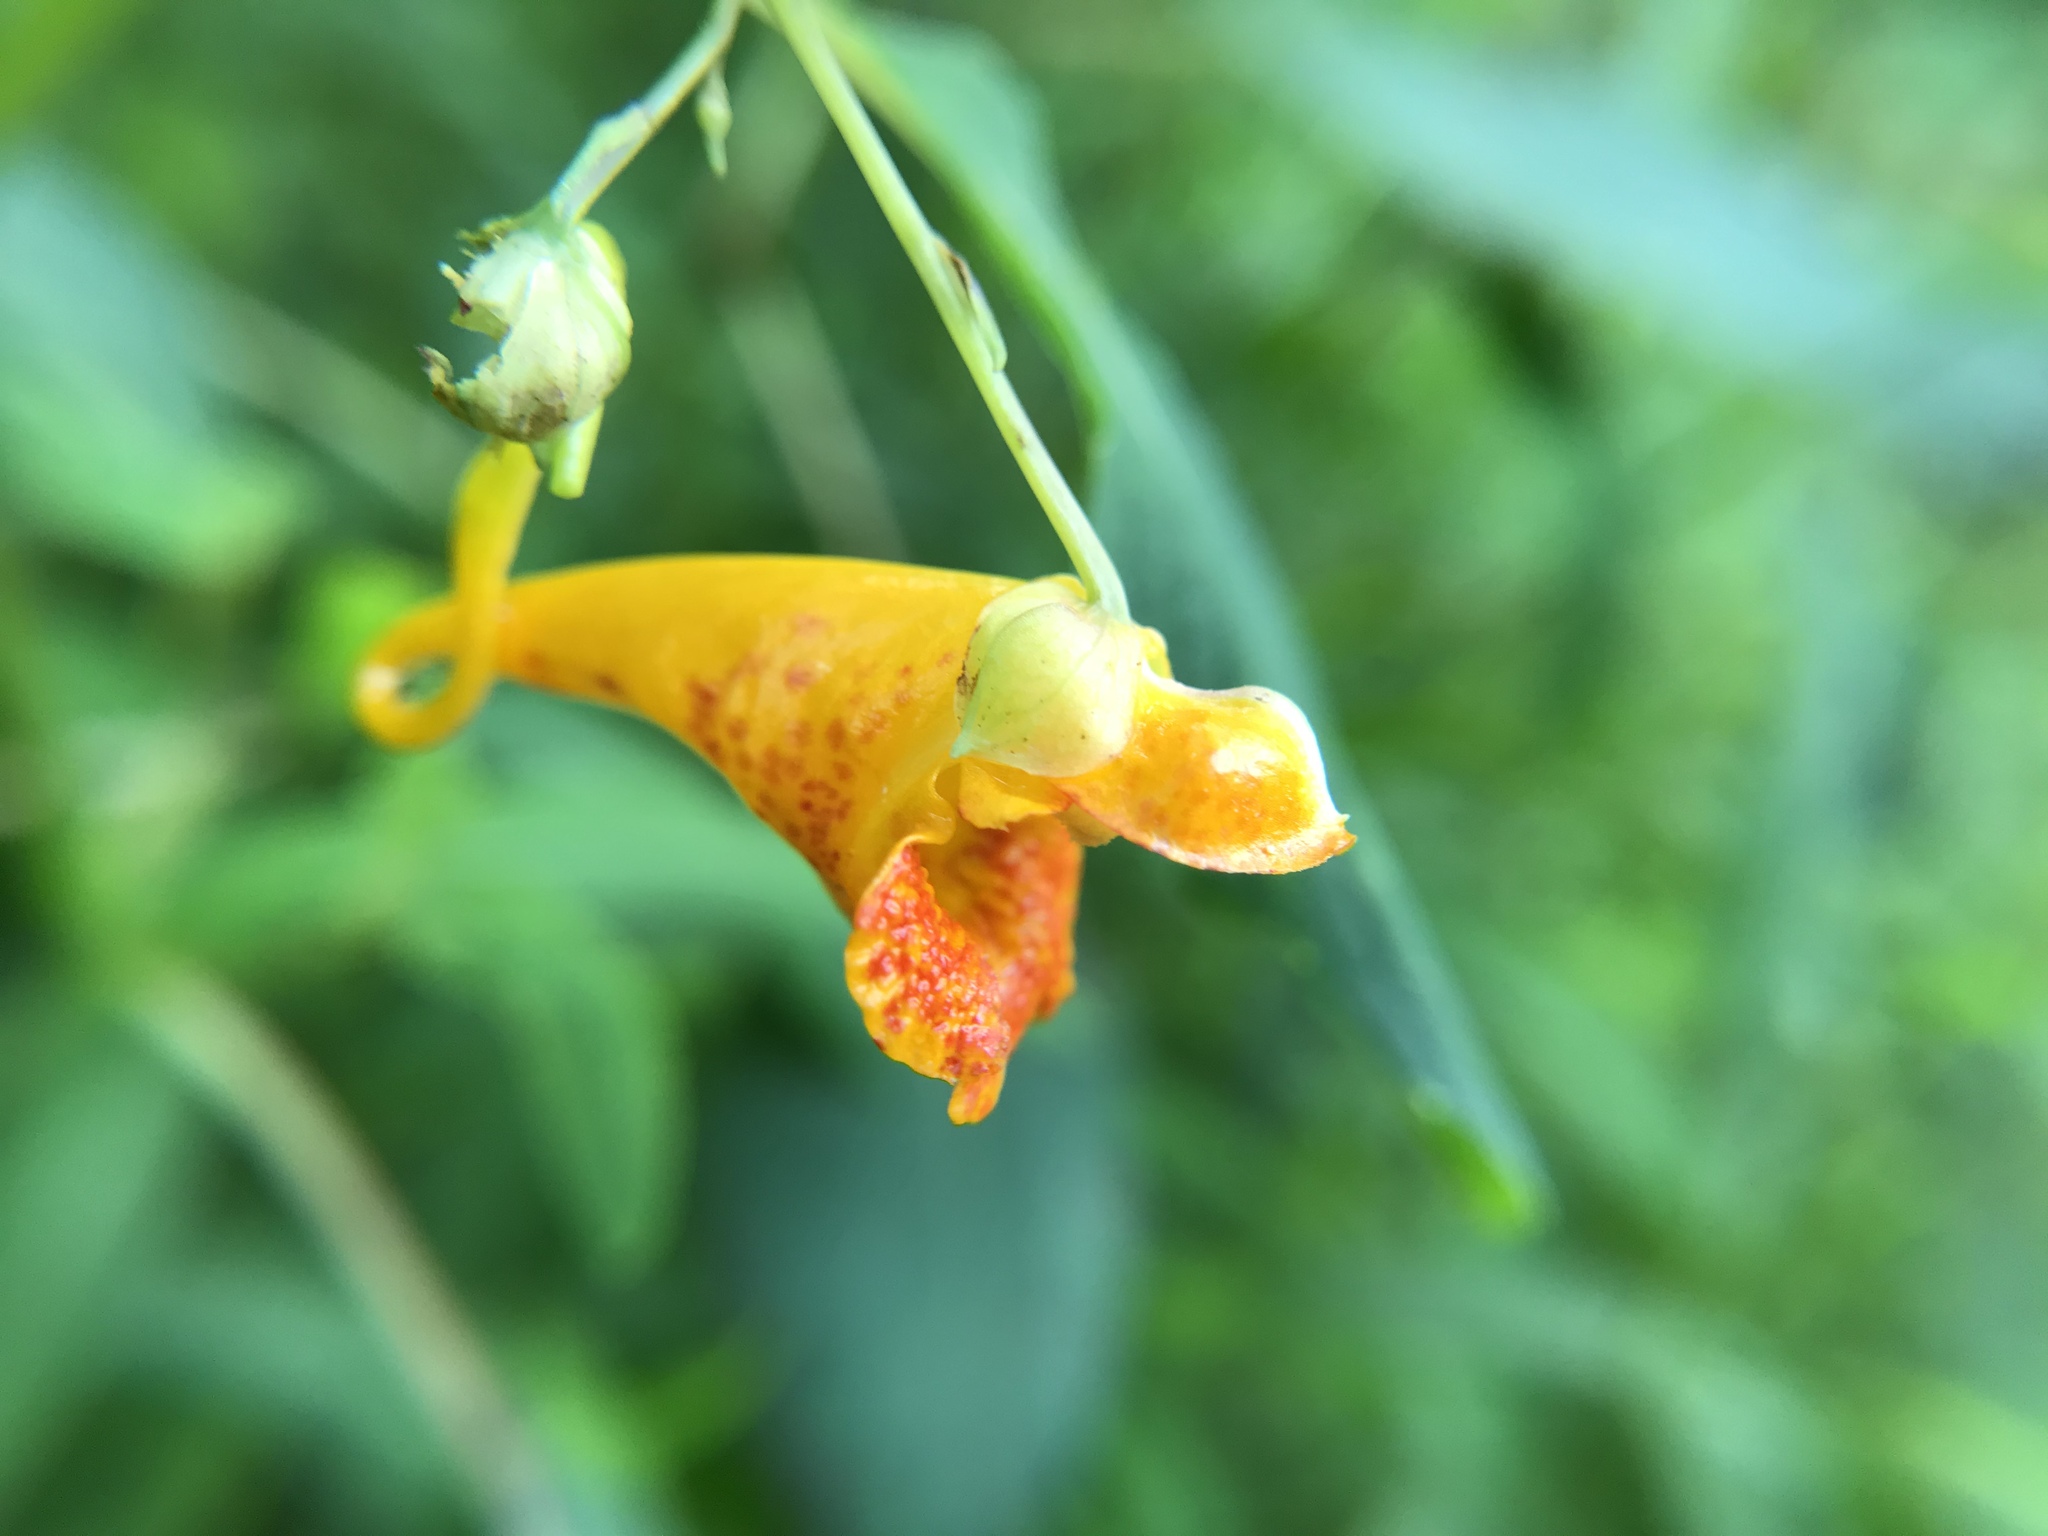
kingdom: Plantae
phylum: Tracheophyta
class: Magnoliopsida
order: Ericales
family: Balsaminaceae
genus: Impatiens
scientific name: Impatiens capensis
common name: Orange balsam
